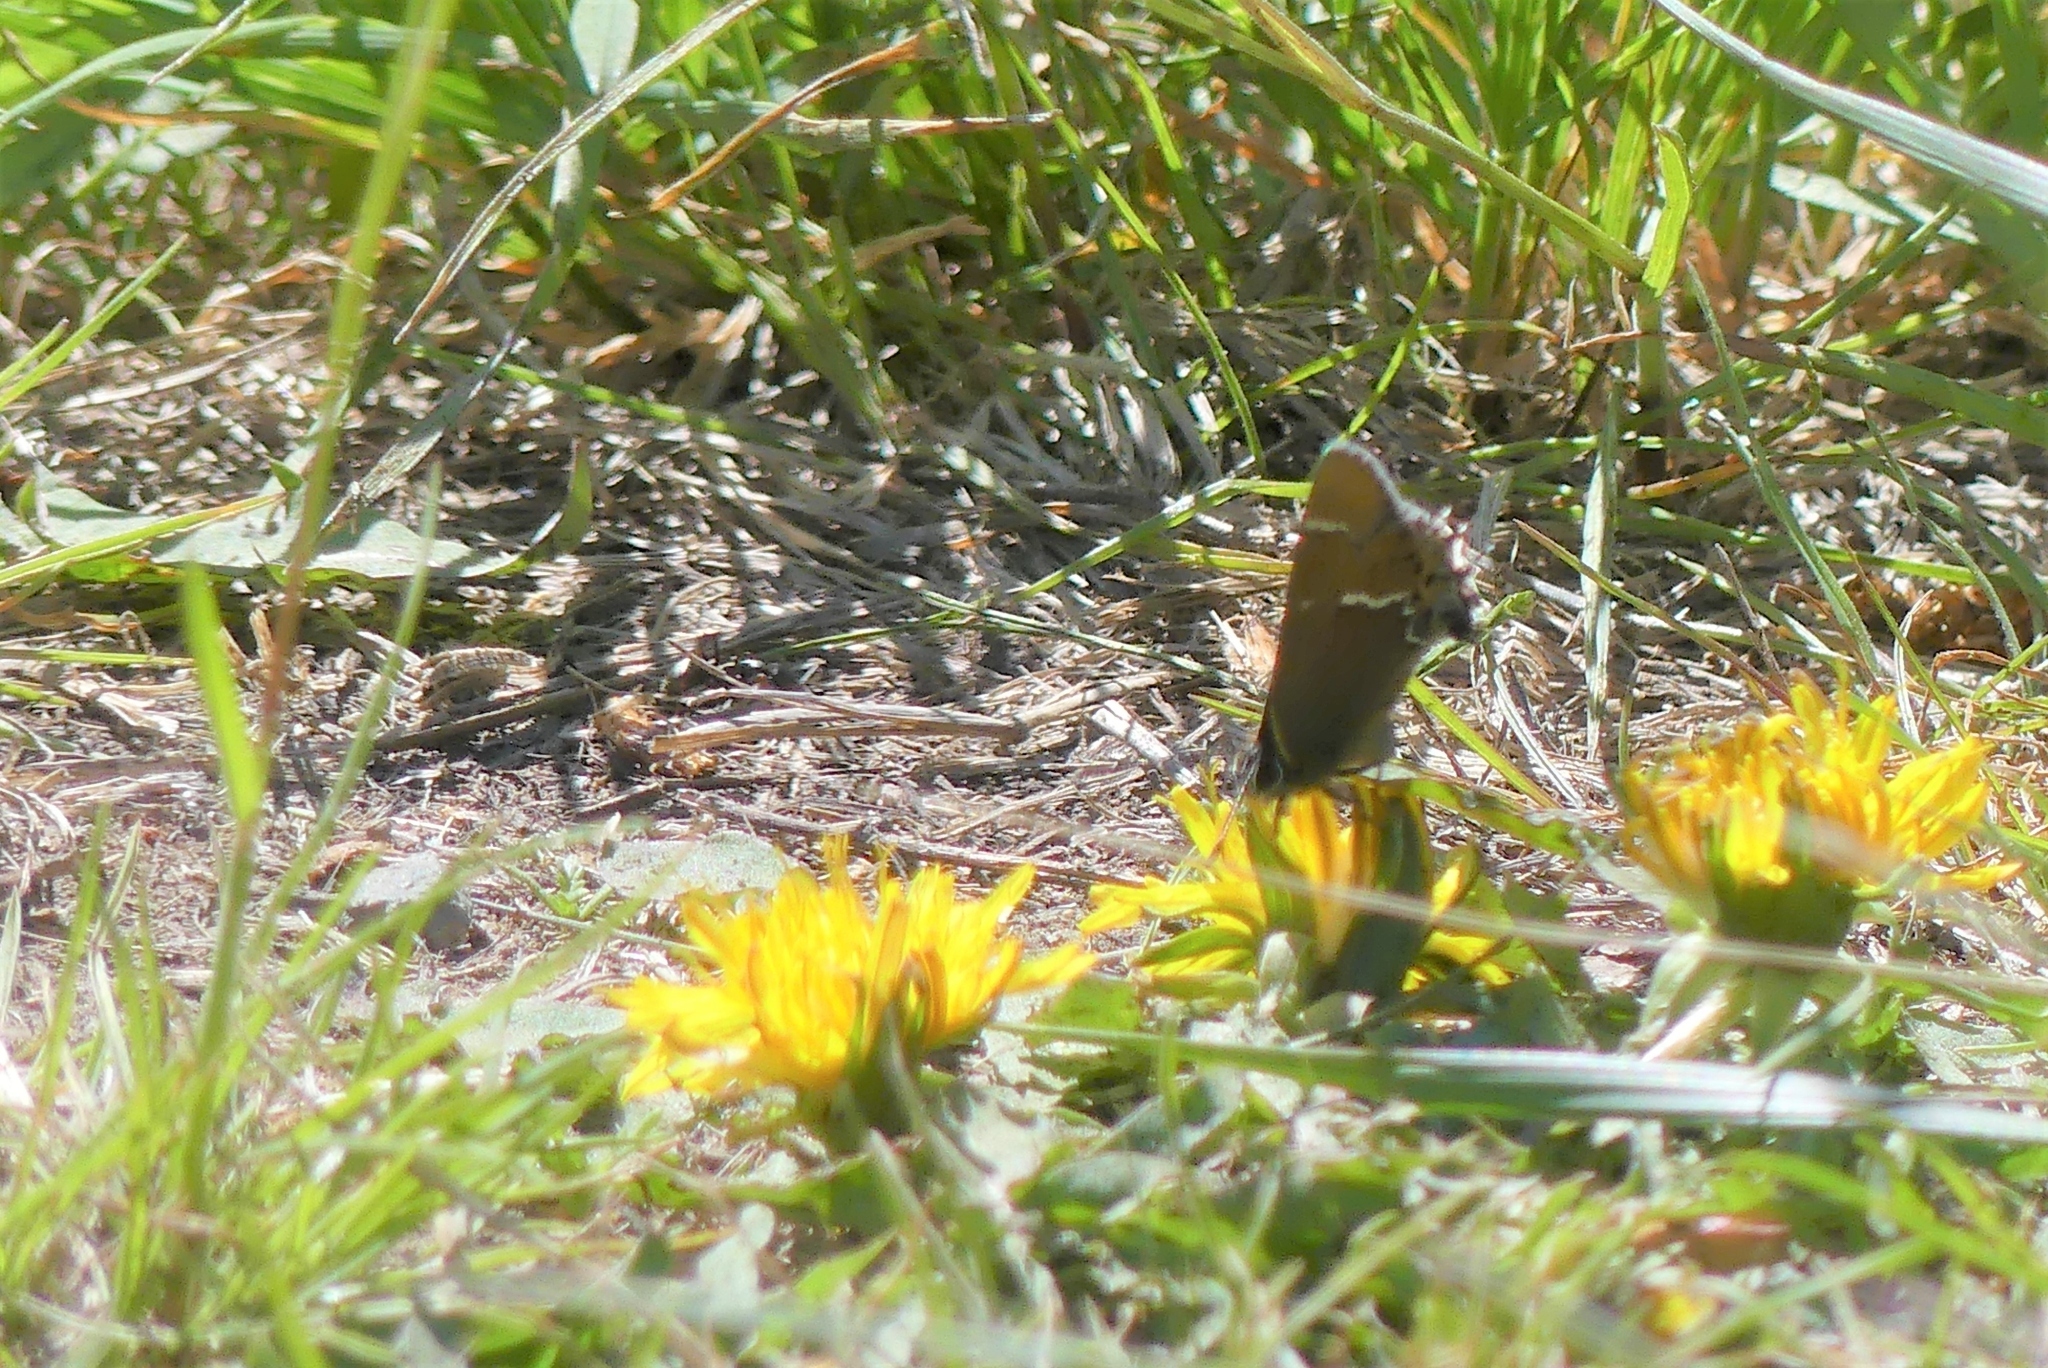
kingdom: Animalia
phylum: Arthropoda
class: Insecta
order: Lepidoptera
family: Lycaenidae
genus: Mitoura
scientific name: Mitoura spinetorum
